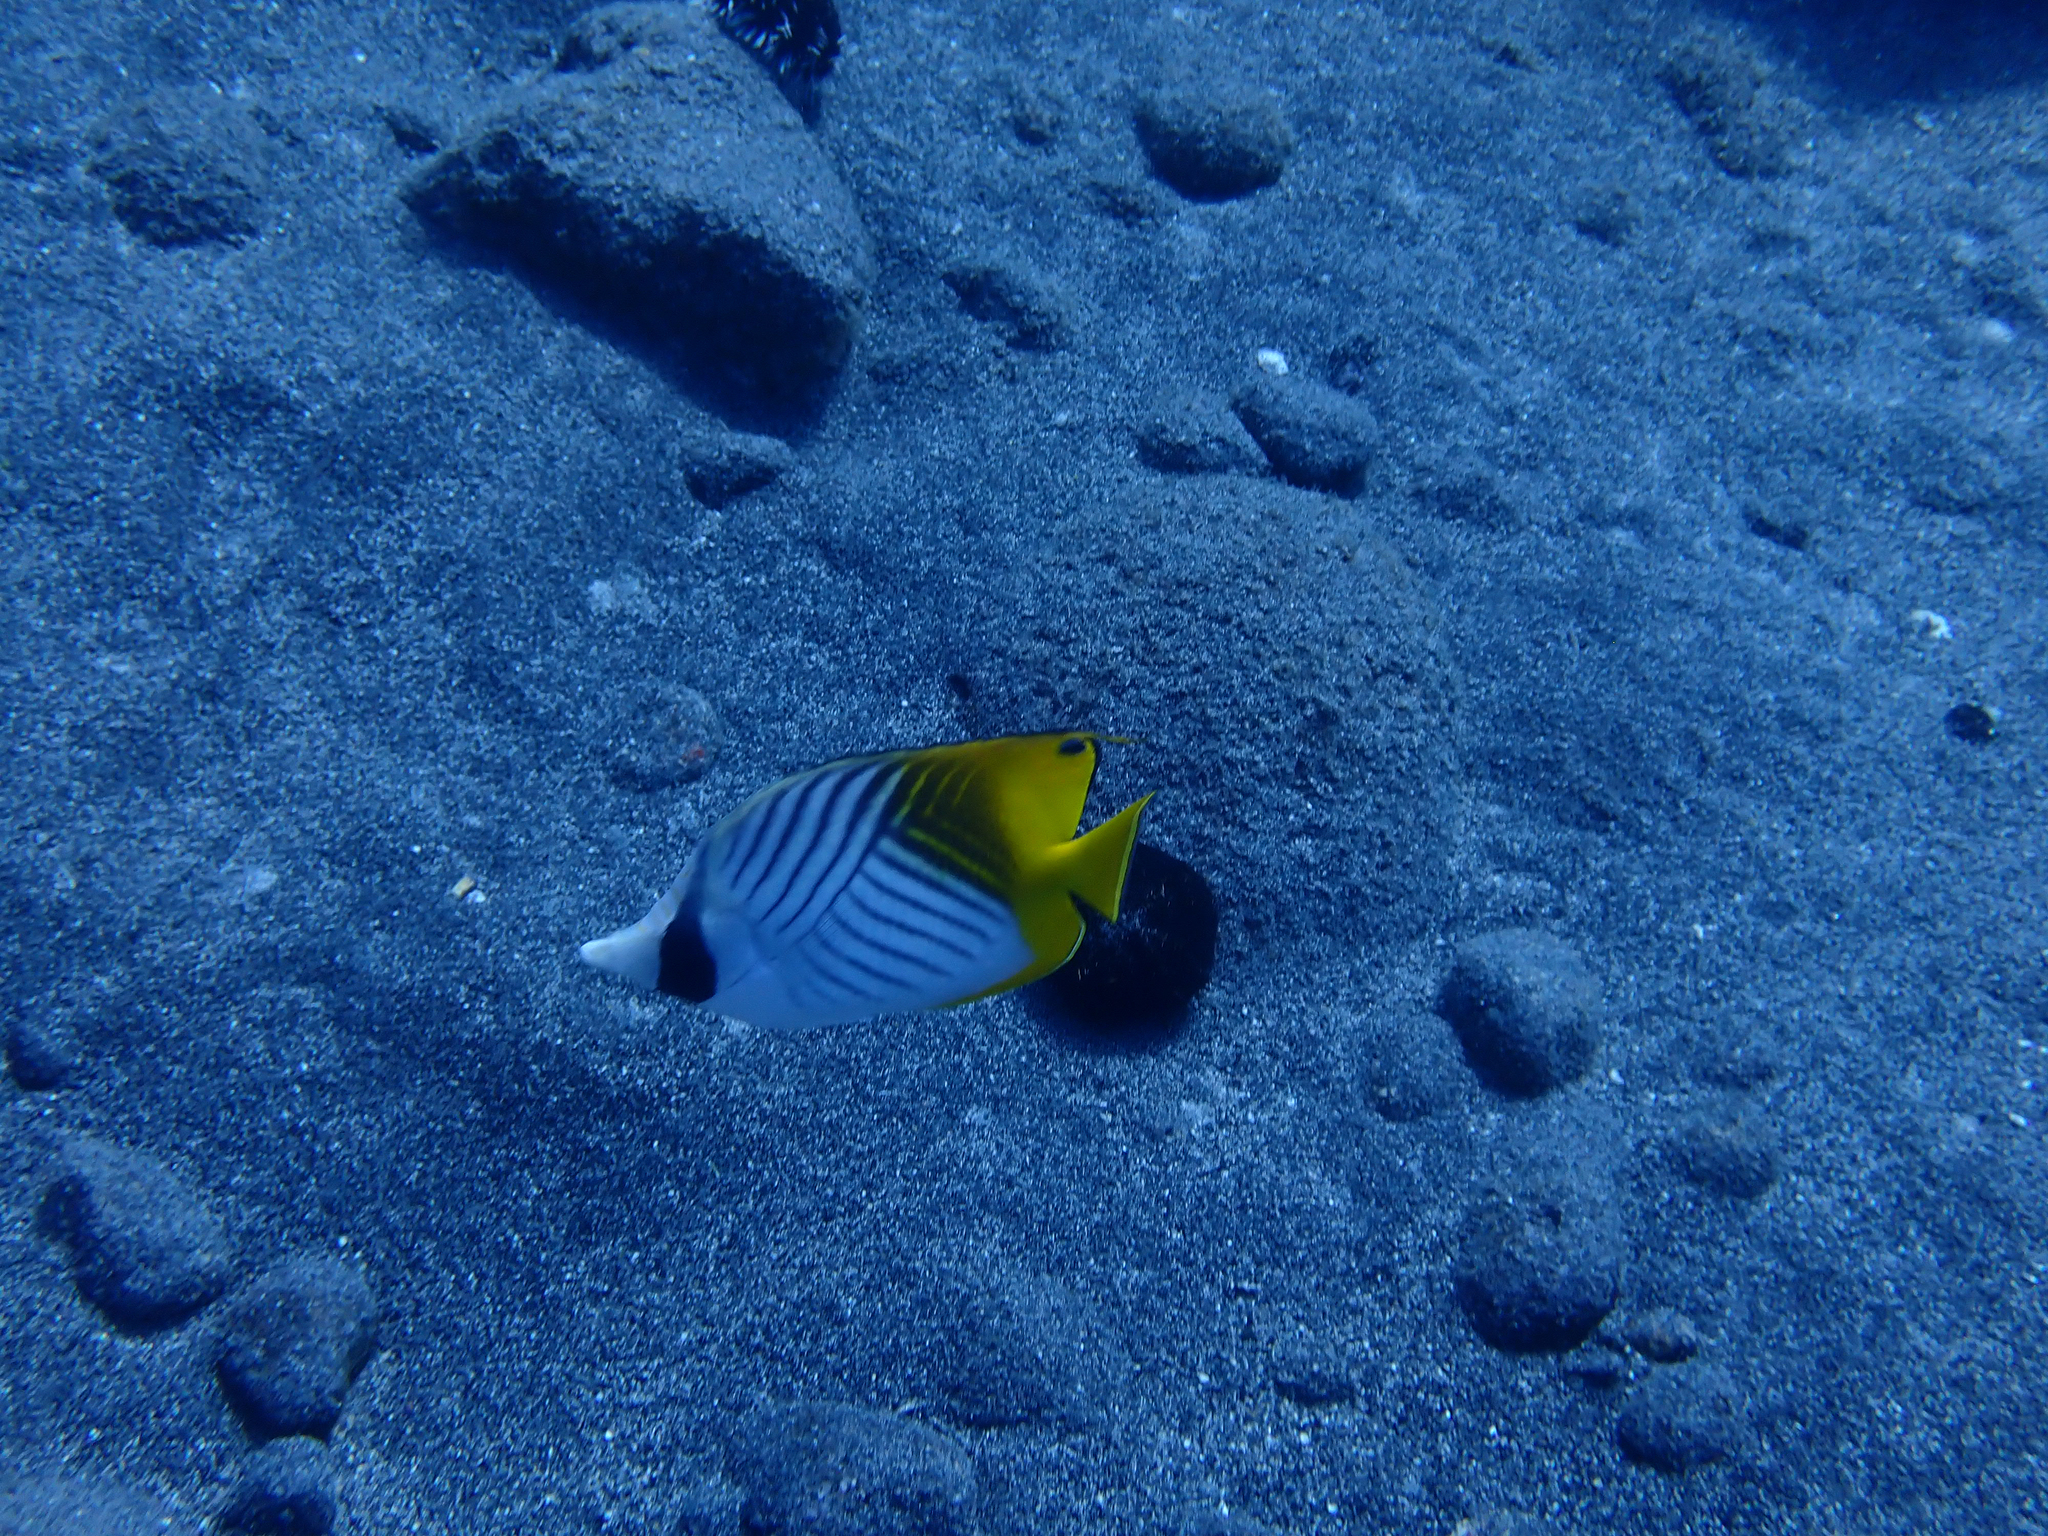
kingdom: Animalia
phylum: Chordata
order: Perciformes
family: Chaetodontidae
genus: Chaetodon
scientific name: Chaetodon auriga
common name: Threadfin butterflyfish
